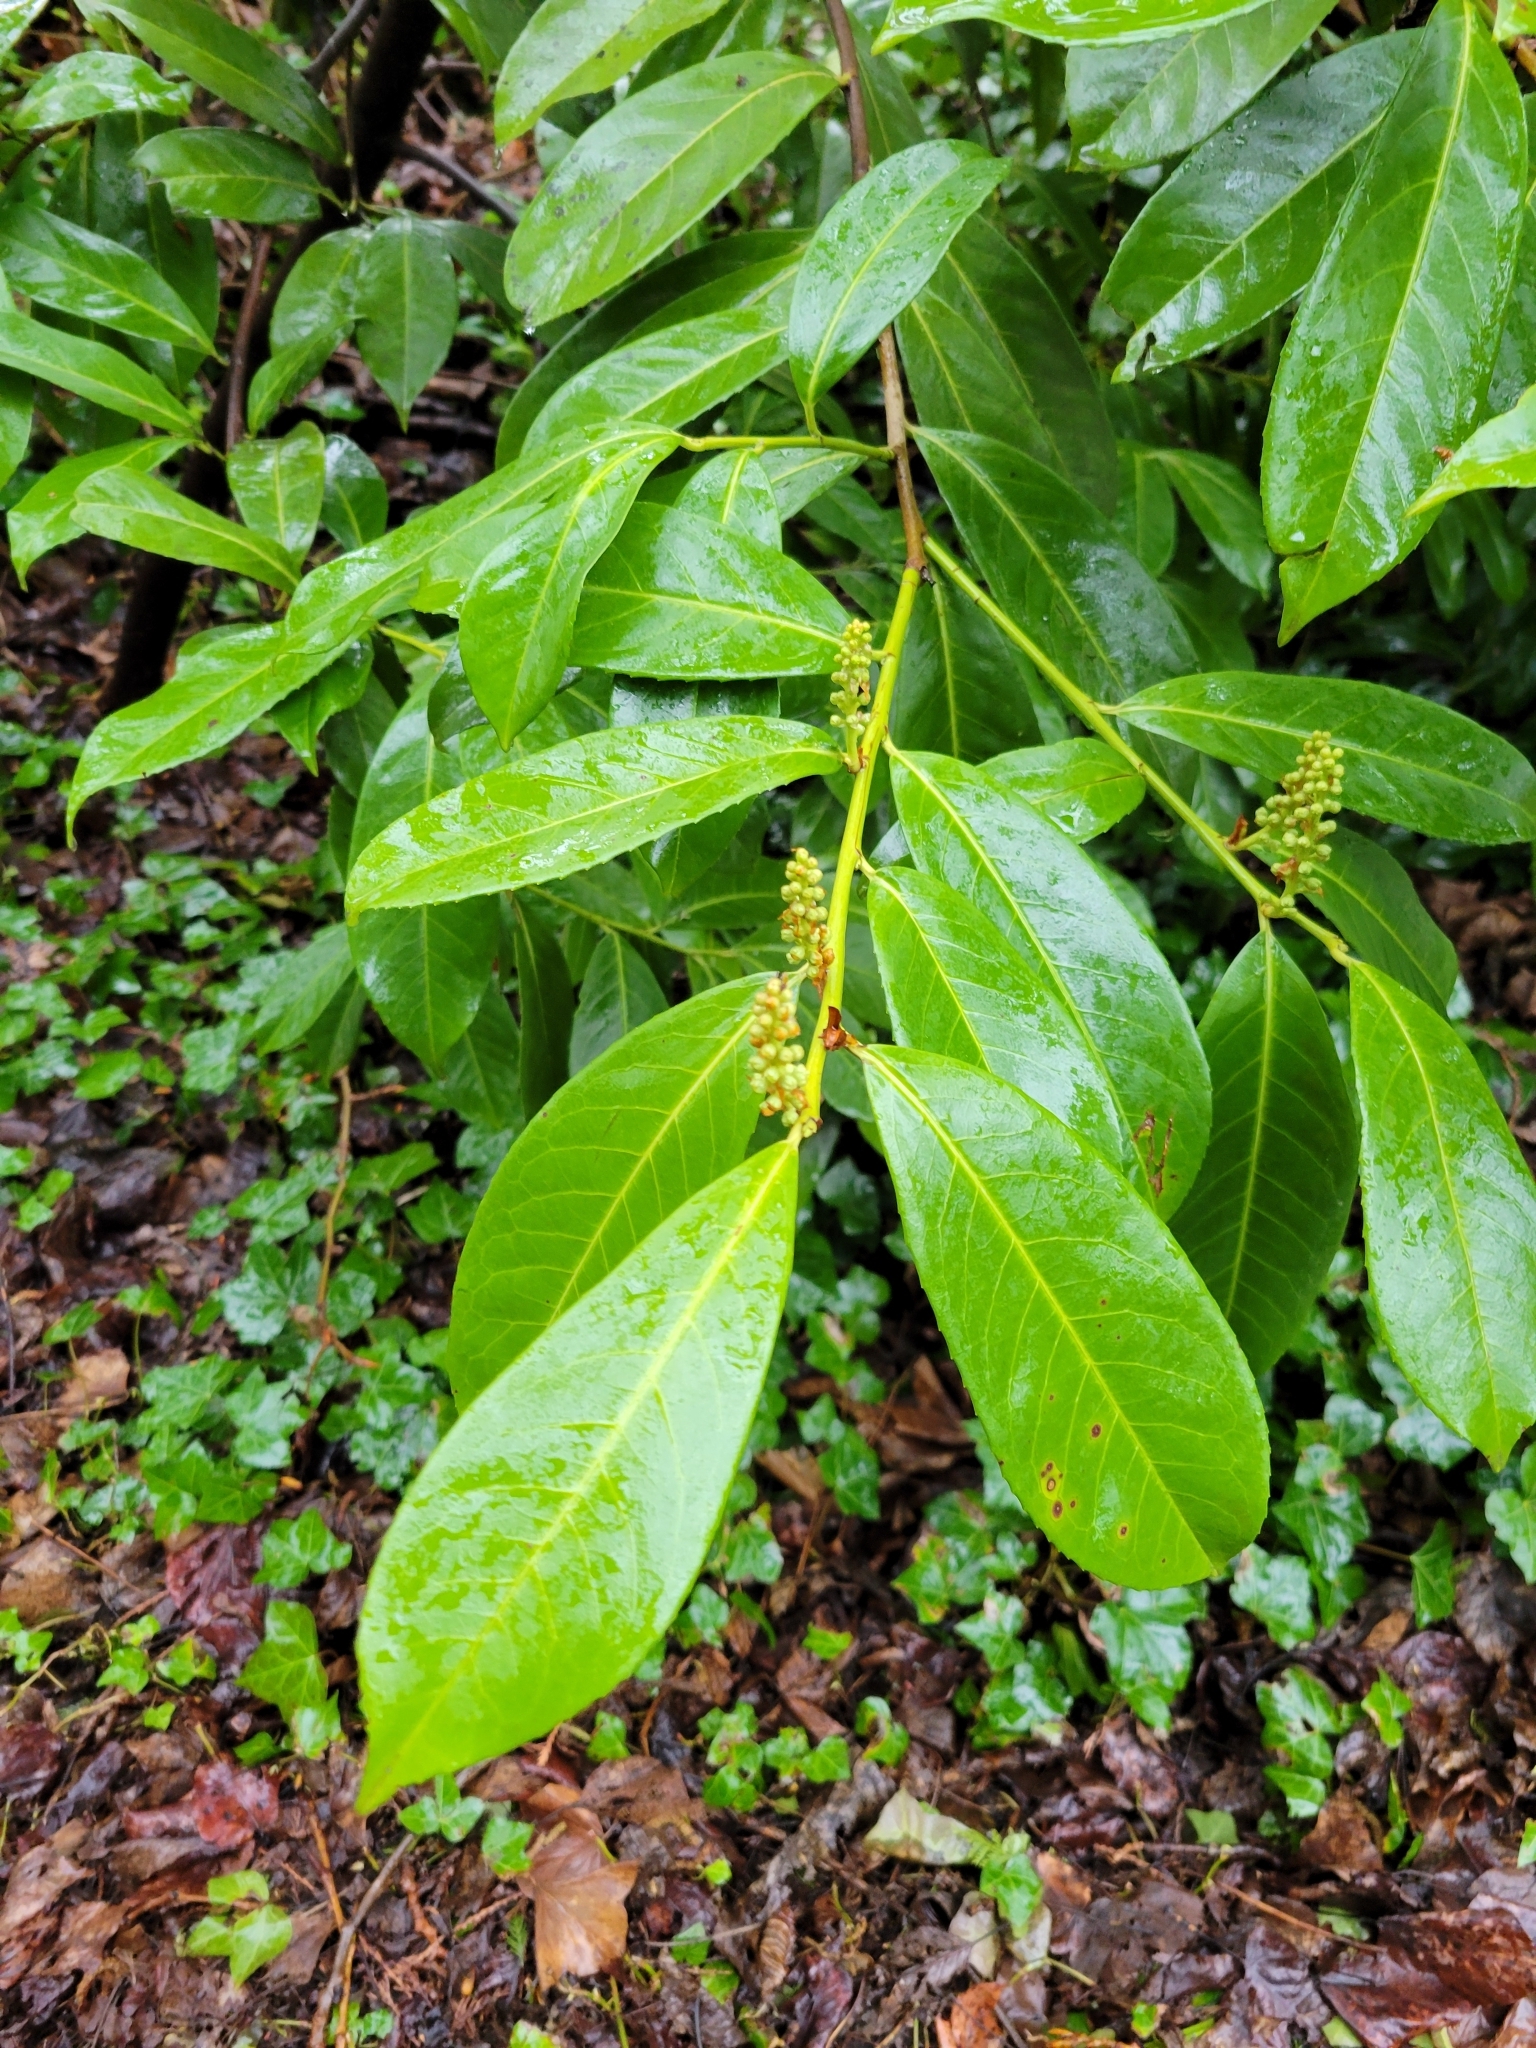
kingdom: Plantae
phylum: Tracheophyta
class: Magnoliopsida
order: Rosales
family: Rosaceae
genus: Prunus
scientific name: Prunus laurocerasus
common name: Cherry laurel
